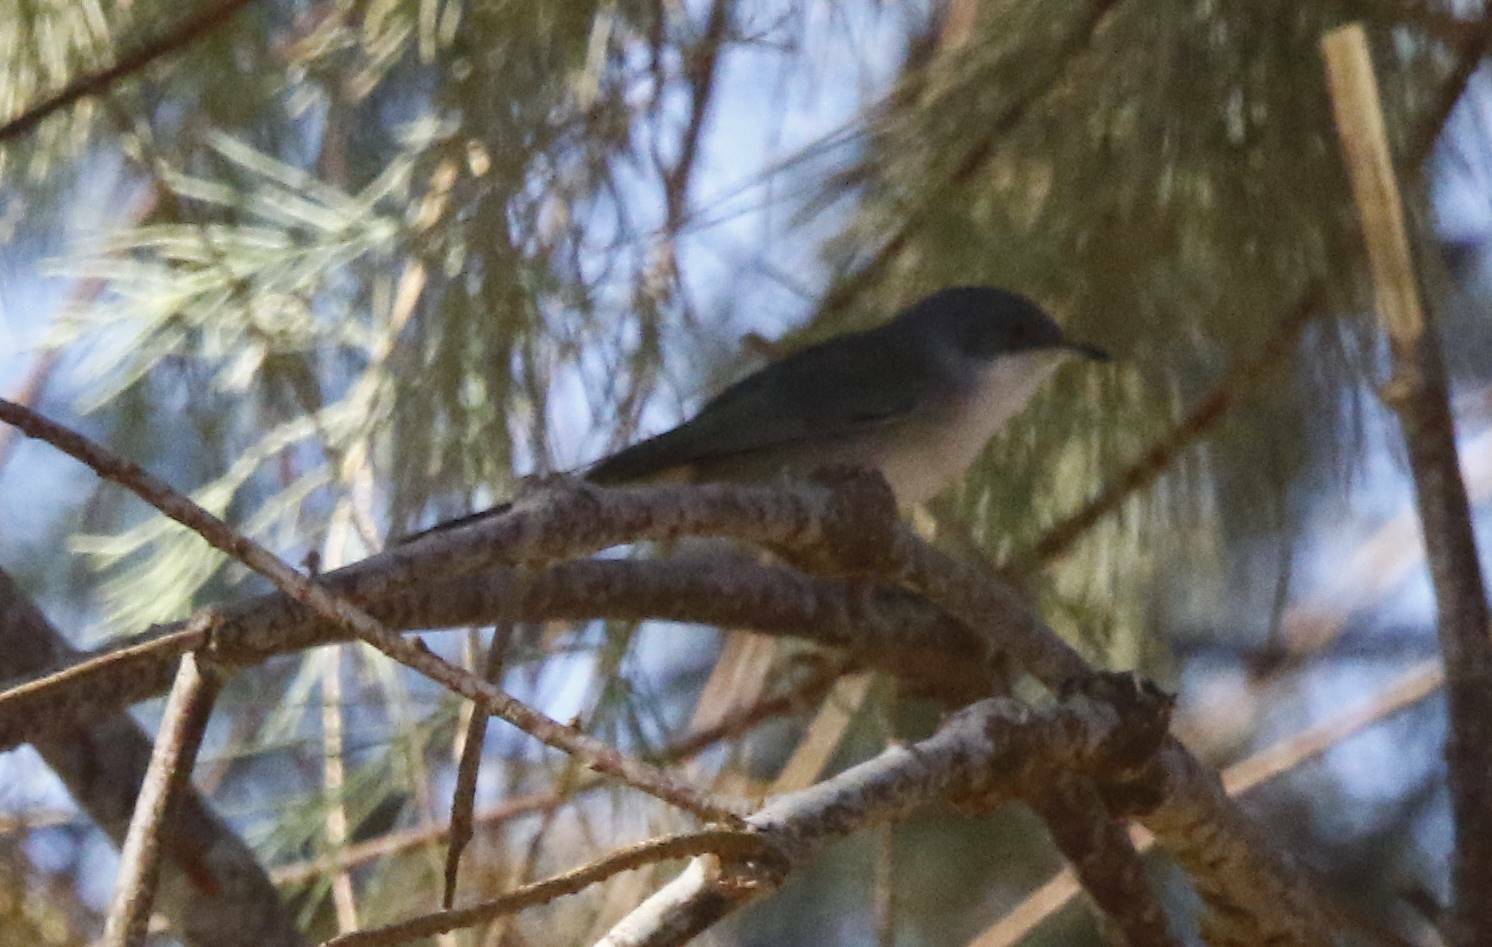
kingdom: Animalia
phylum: Chordata
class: Aves
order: Passeriformes
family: Sylviidae
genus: Curruca
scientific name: Curruca melanocephala
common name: Sardinian warbler
